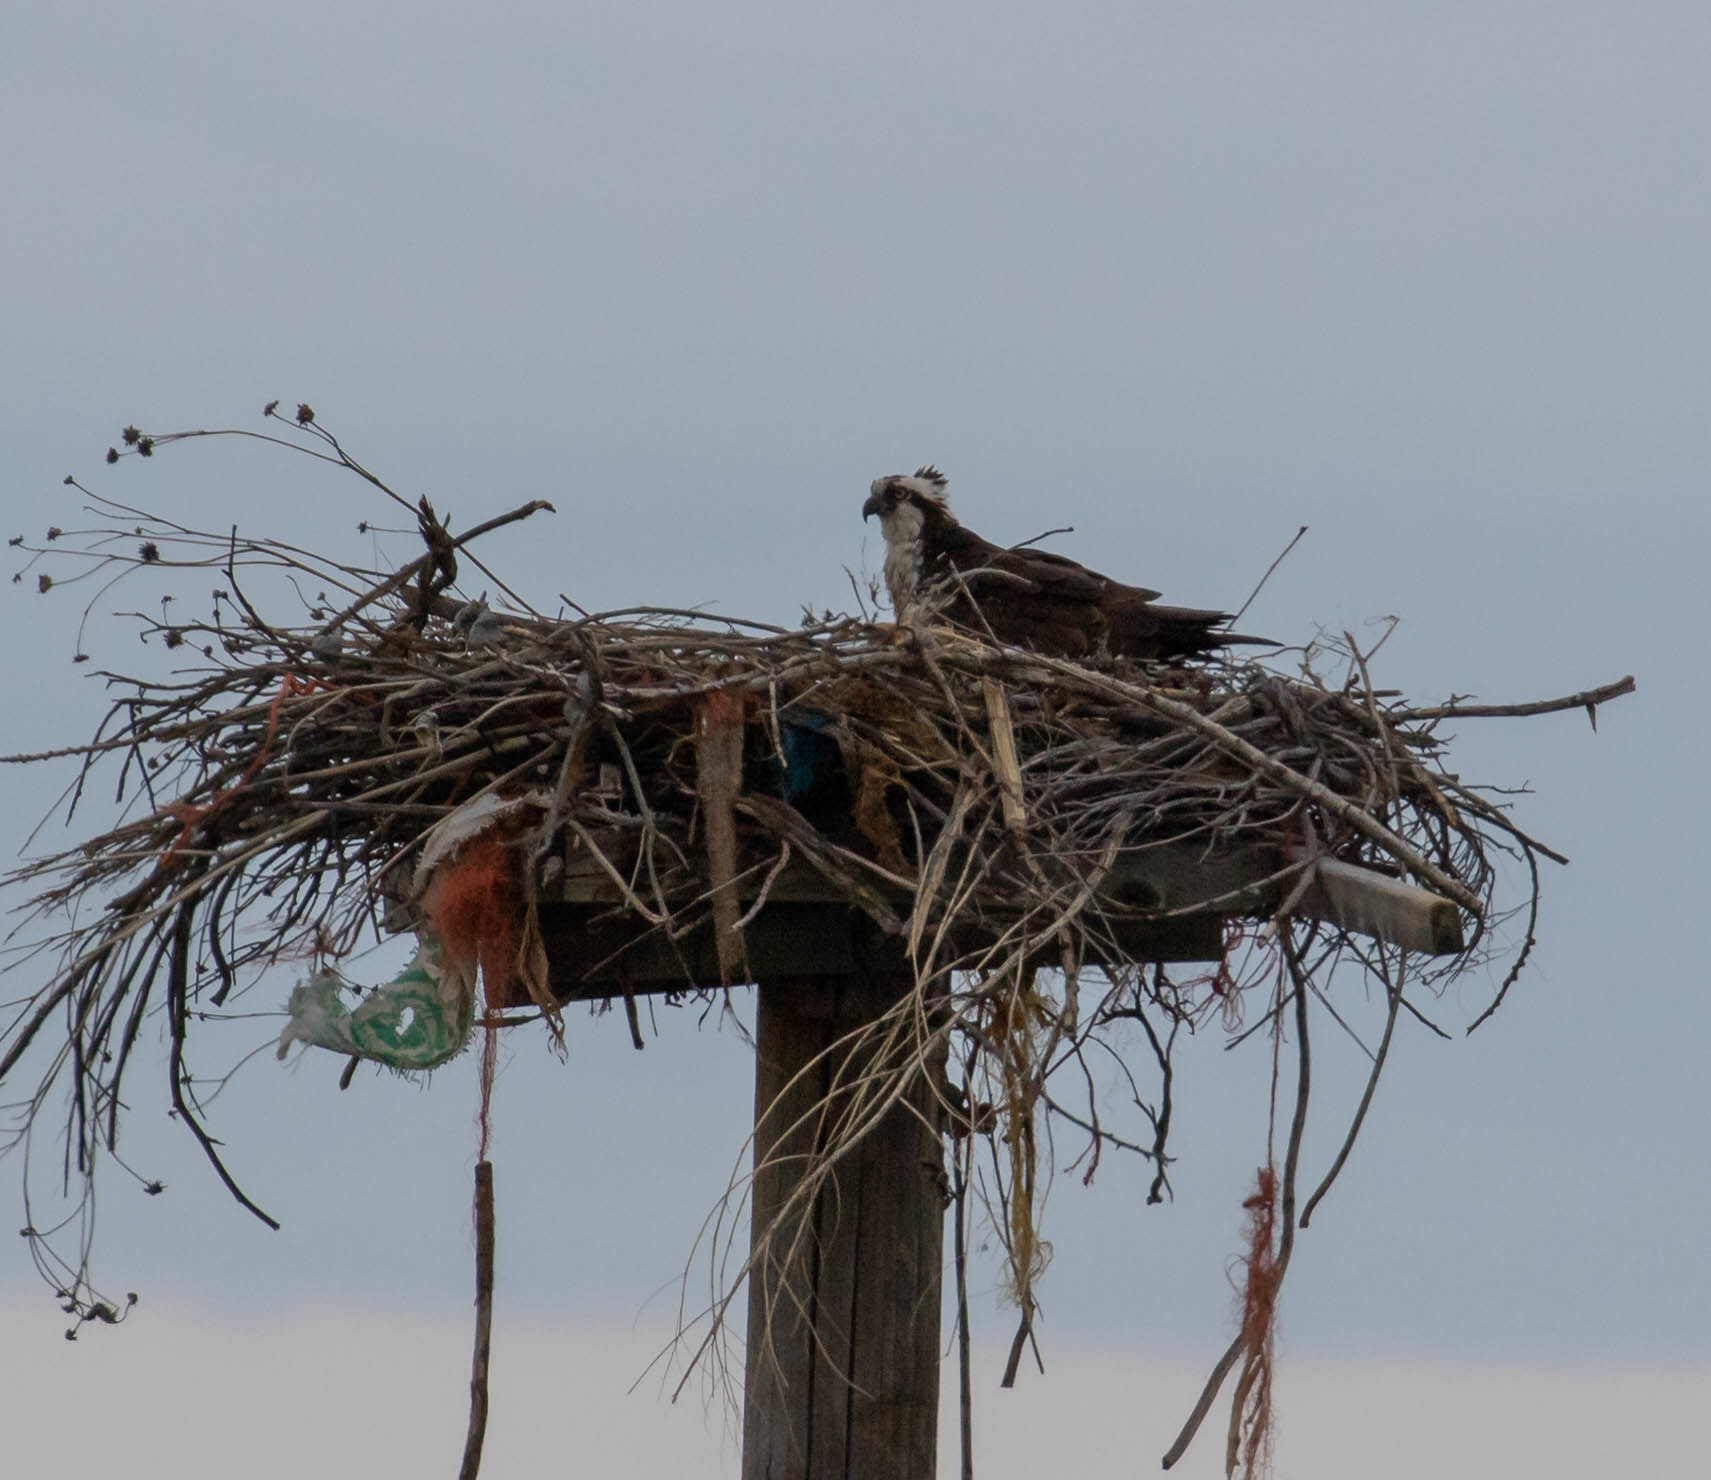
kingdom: Animalia
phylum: Chordata
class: Aves
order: Accipitriformes
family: Pandionidae
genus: Pandion
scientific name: Pandion haliaetus
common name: Osprey
